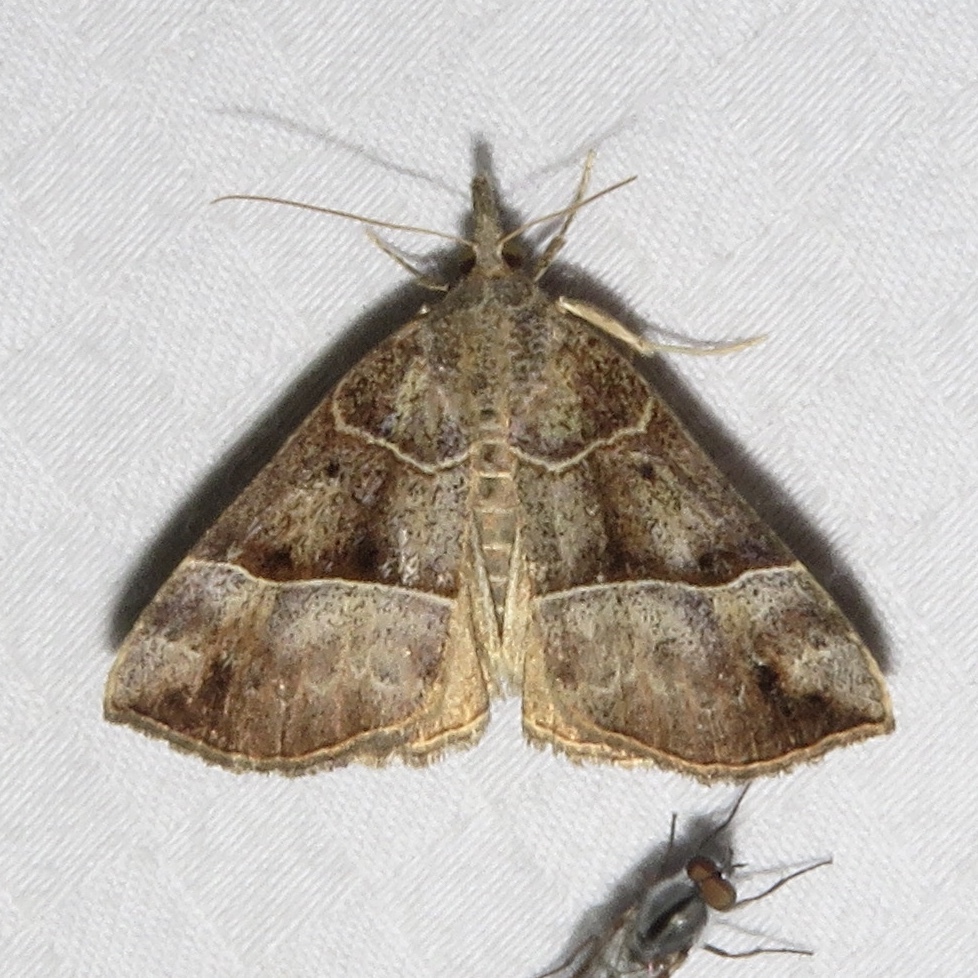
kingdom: Animalia
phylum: Arthropoda
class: Insecta
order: Lepidoptera
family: Erebidae
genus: Hypena
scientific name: Hypena deceptalis
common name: Deceptive snout
